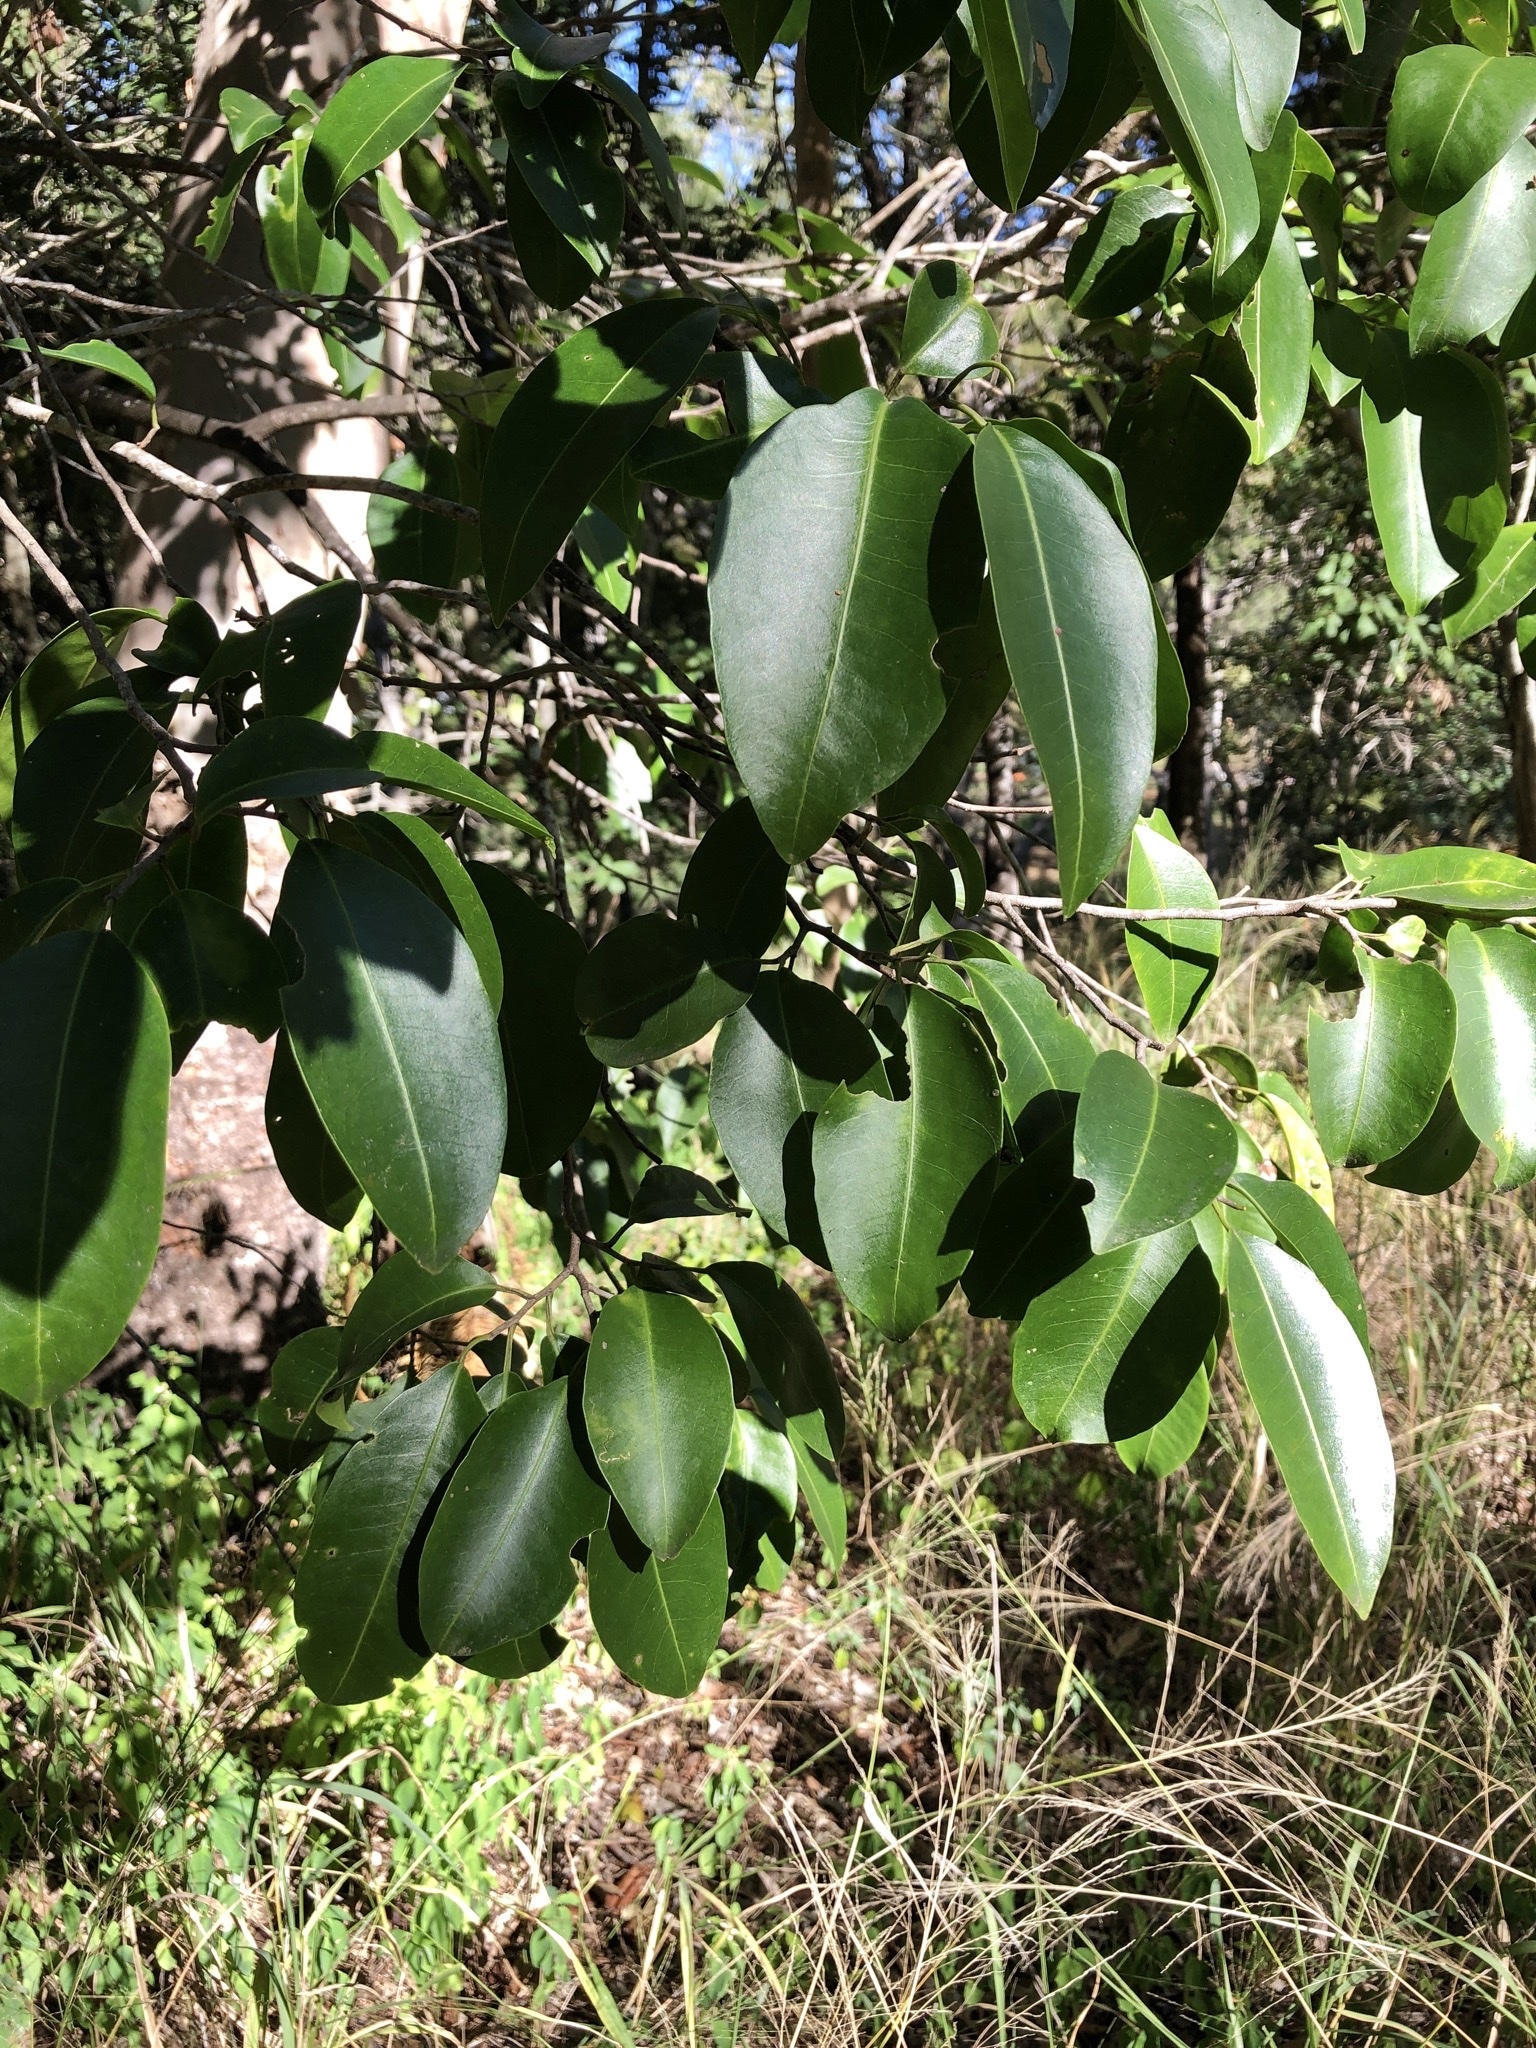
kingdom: Plantae
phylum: Tracheophyta
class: Magnoliopsida
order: Sapindales
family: Rutaceae
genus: Geijera
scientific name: Geijera salicifolia
